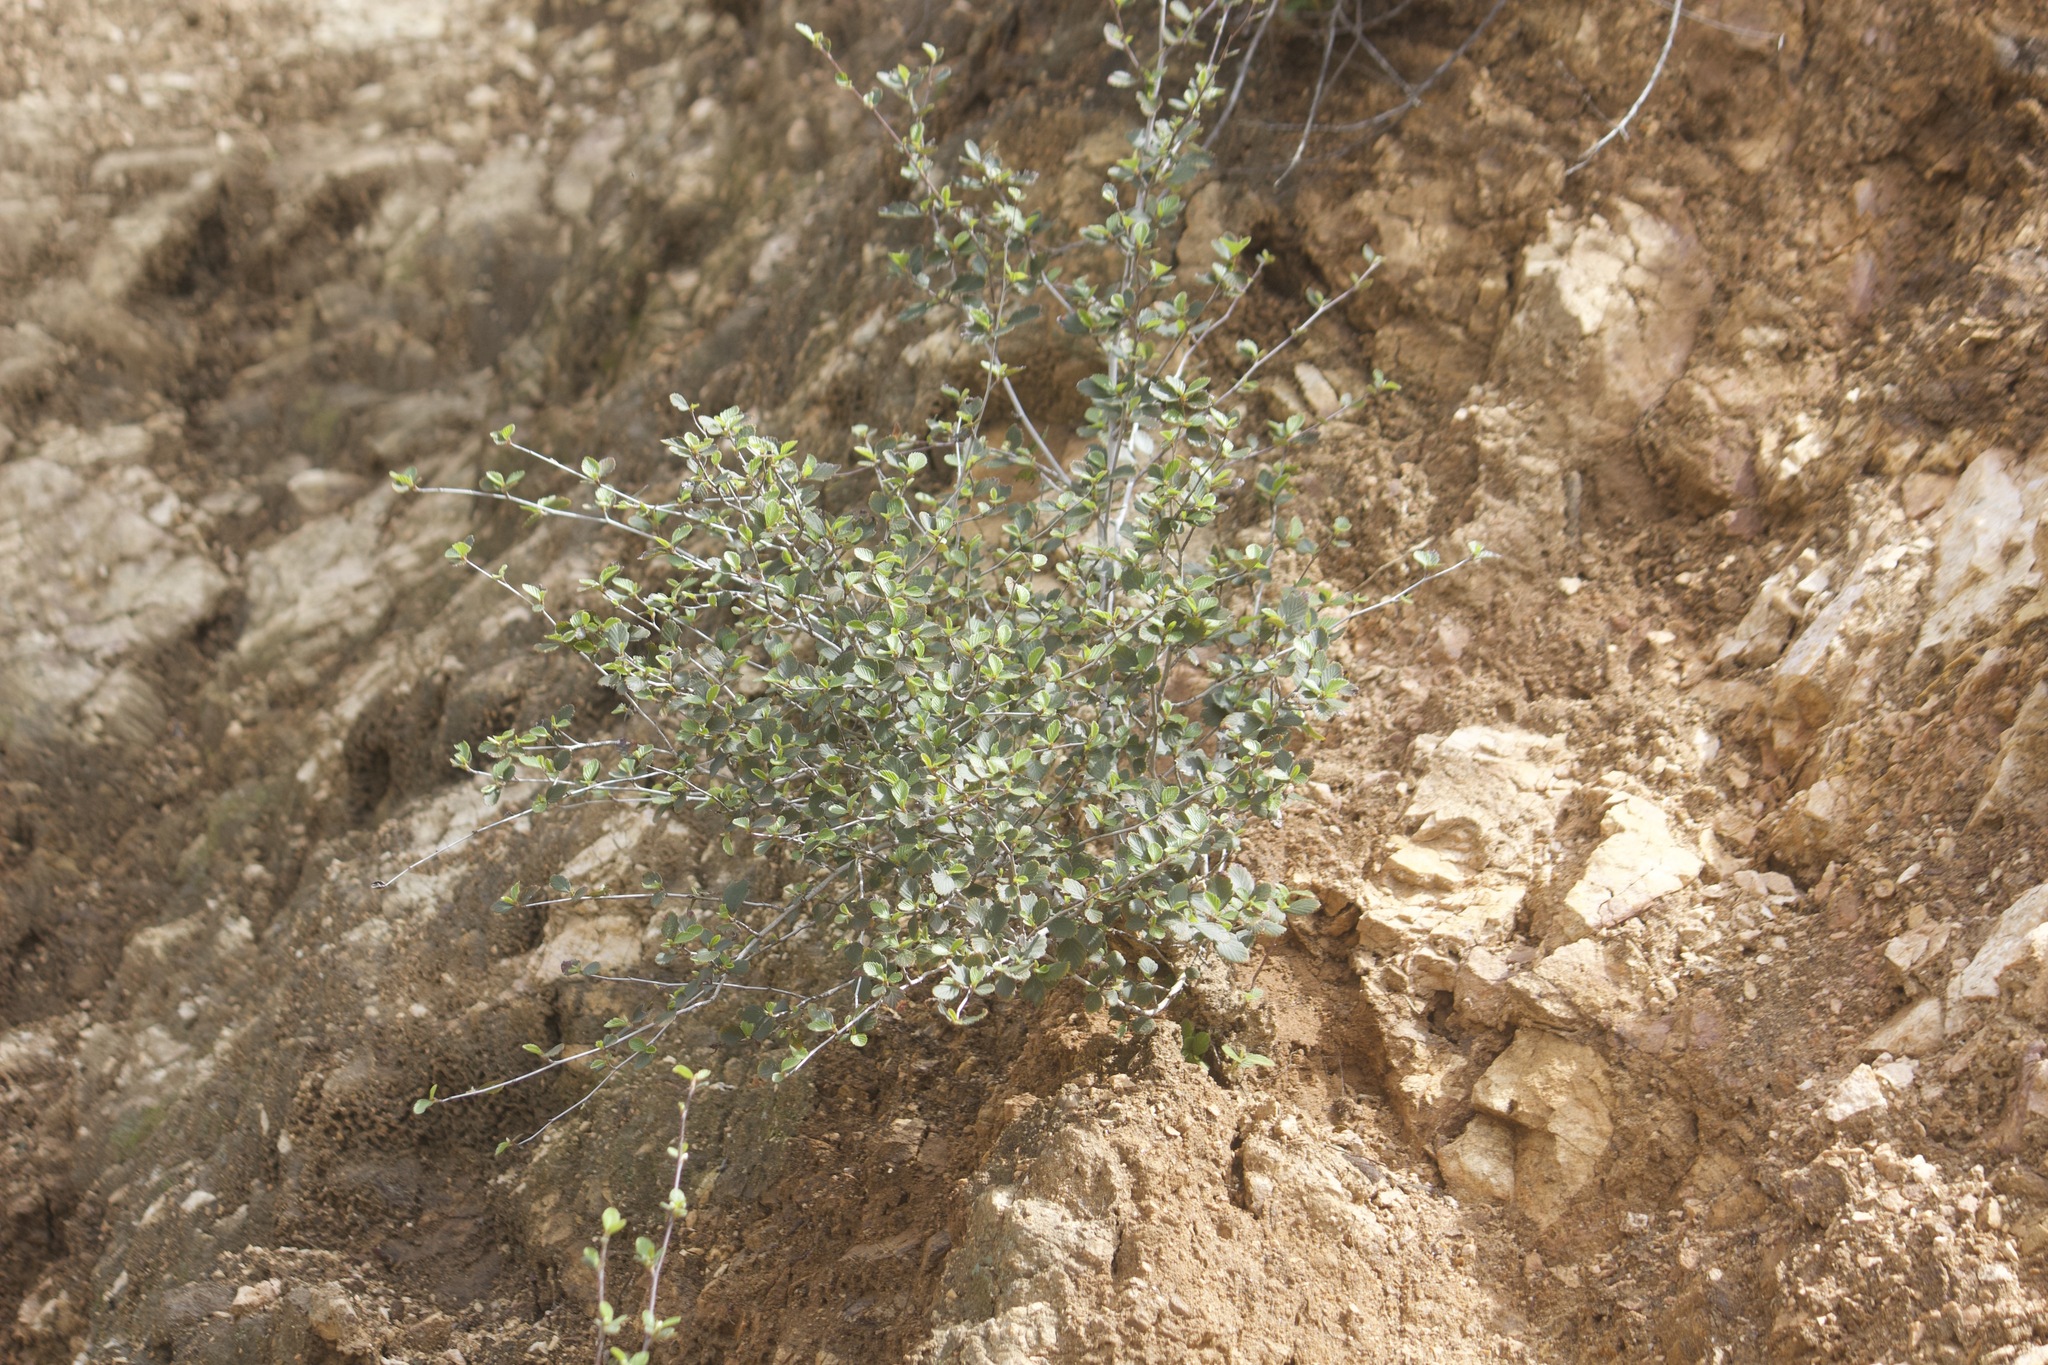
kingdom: Plantae
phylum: Tracheophyta
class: Magnoliopsida
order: Rosales
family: Rosaceae
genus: Cercocarpus
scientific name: Cercocarpus betuloides
